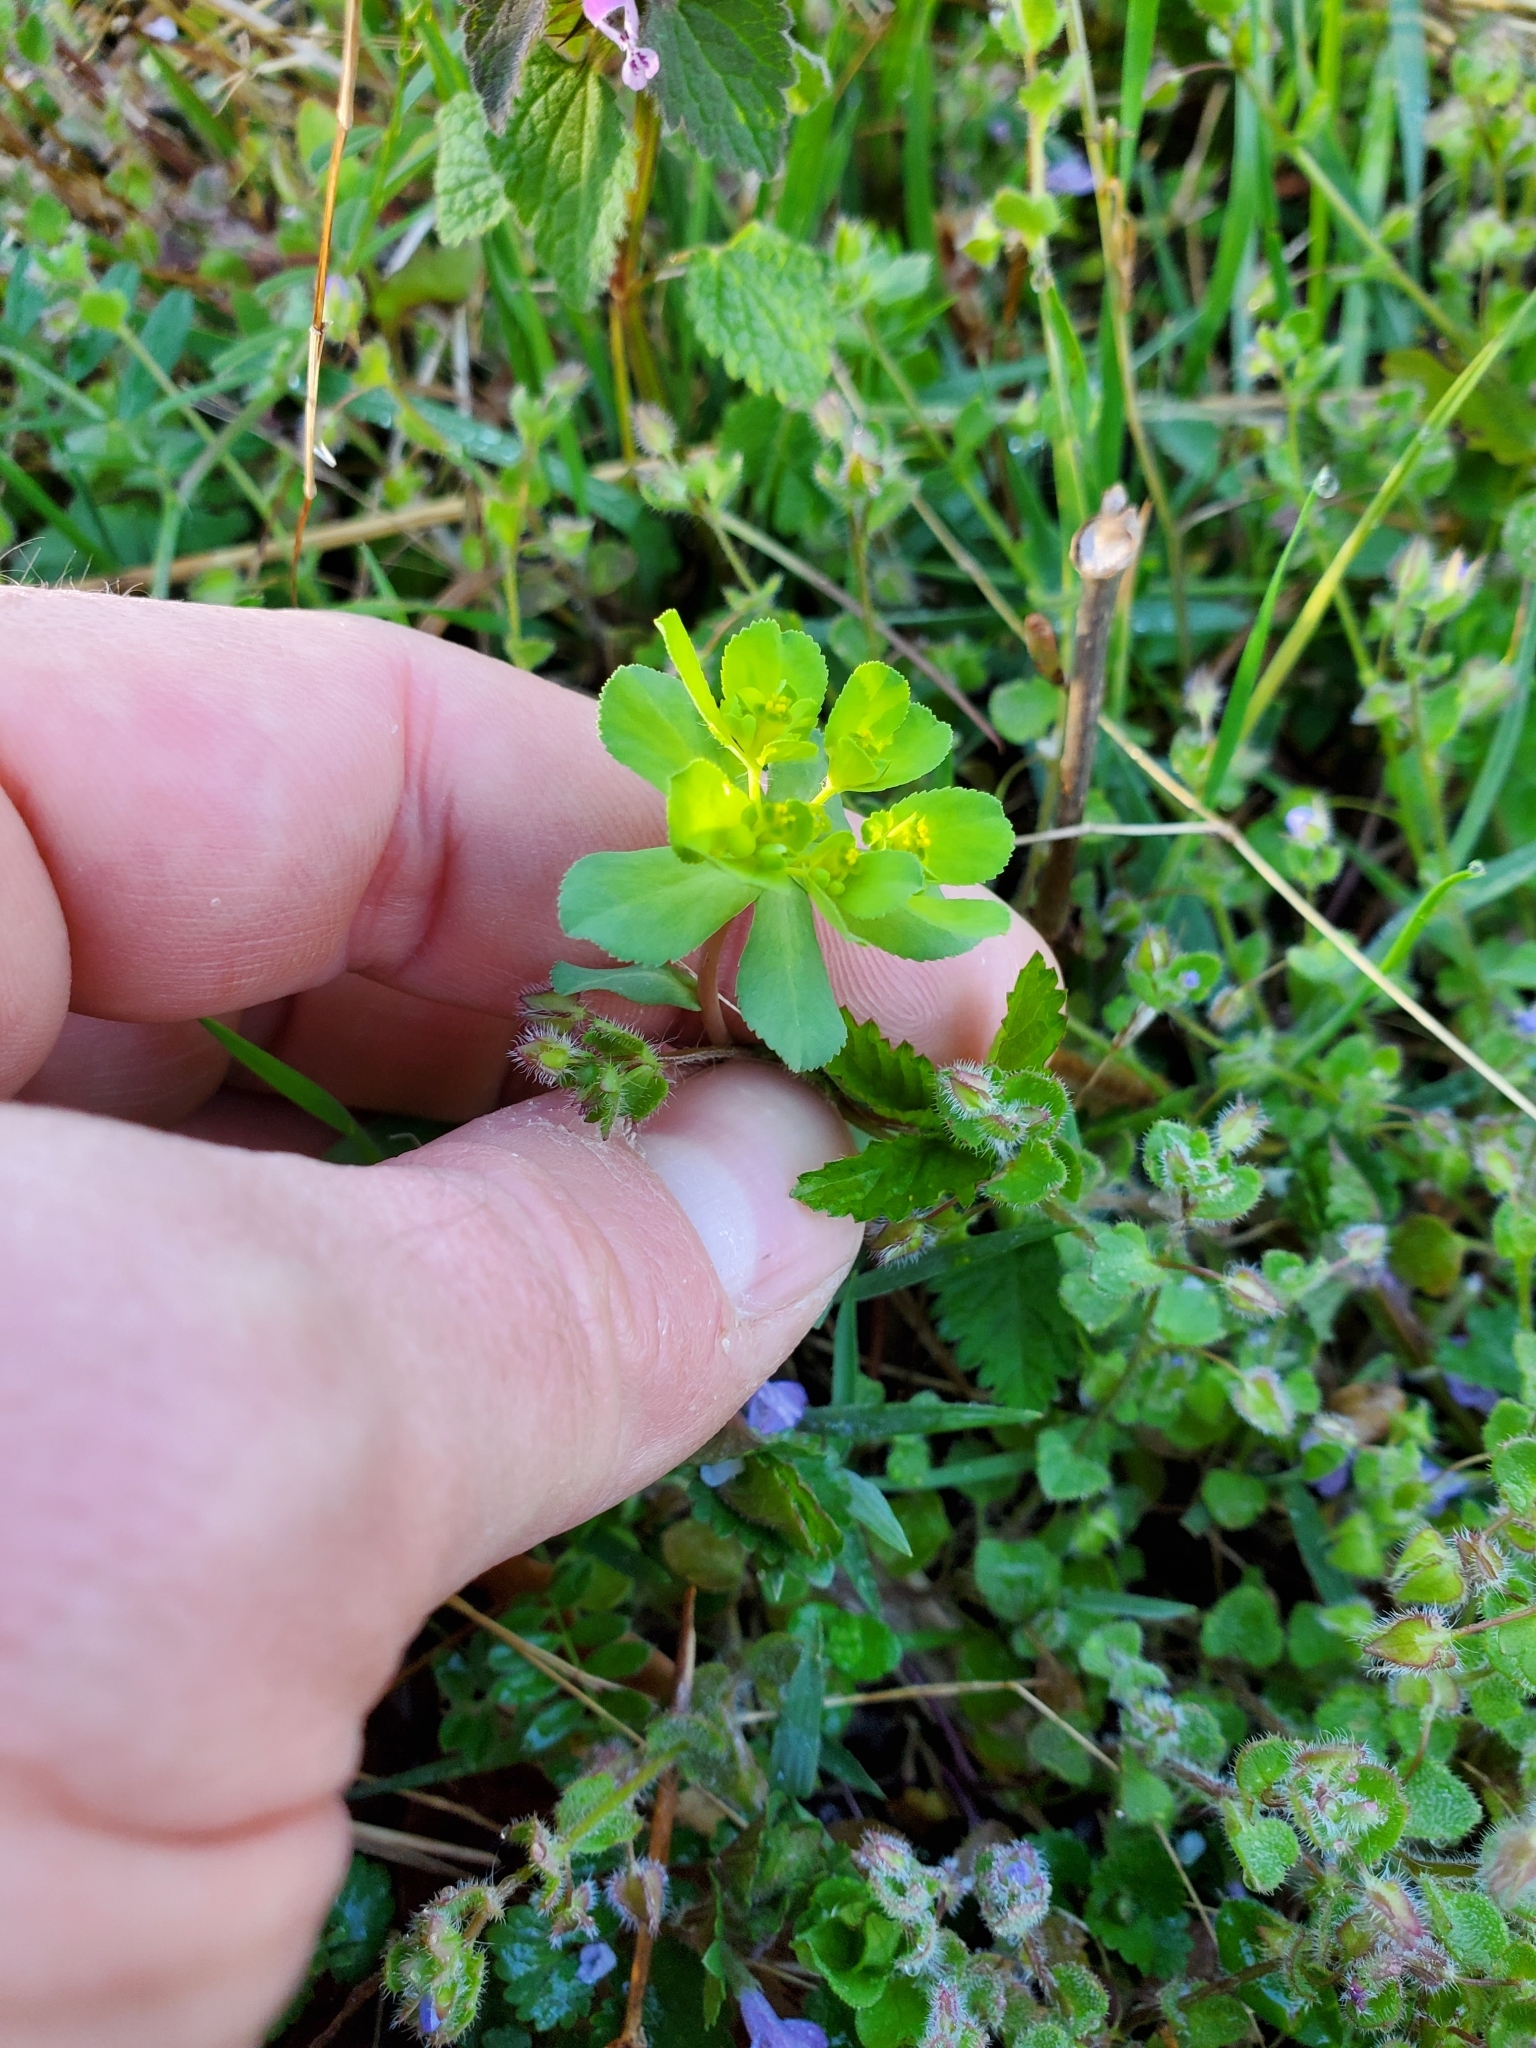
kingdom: Plantae
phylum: Tracheophyta
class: Magnoliopsida
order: Malpighiales
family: Euphorbiaceae
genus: Euphorbia
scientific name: Euphorbia helioscopia
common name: Sun spurge
